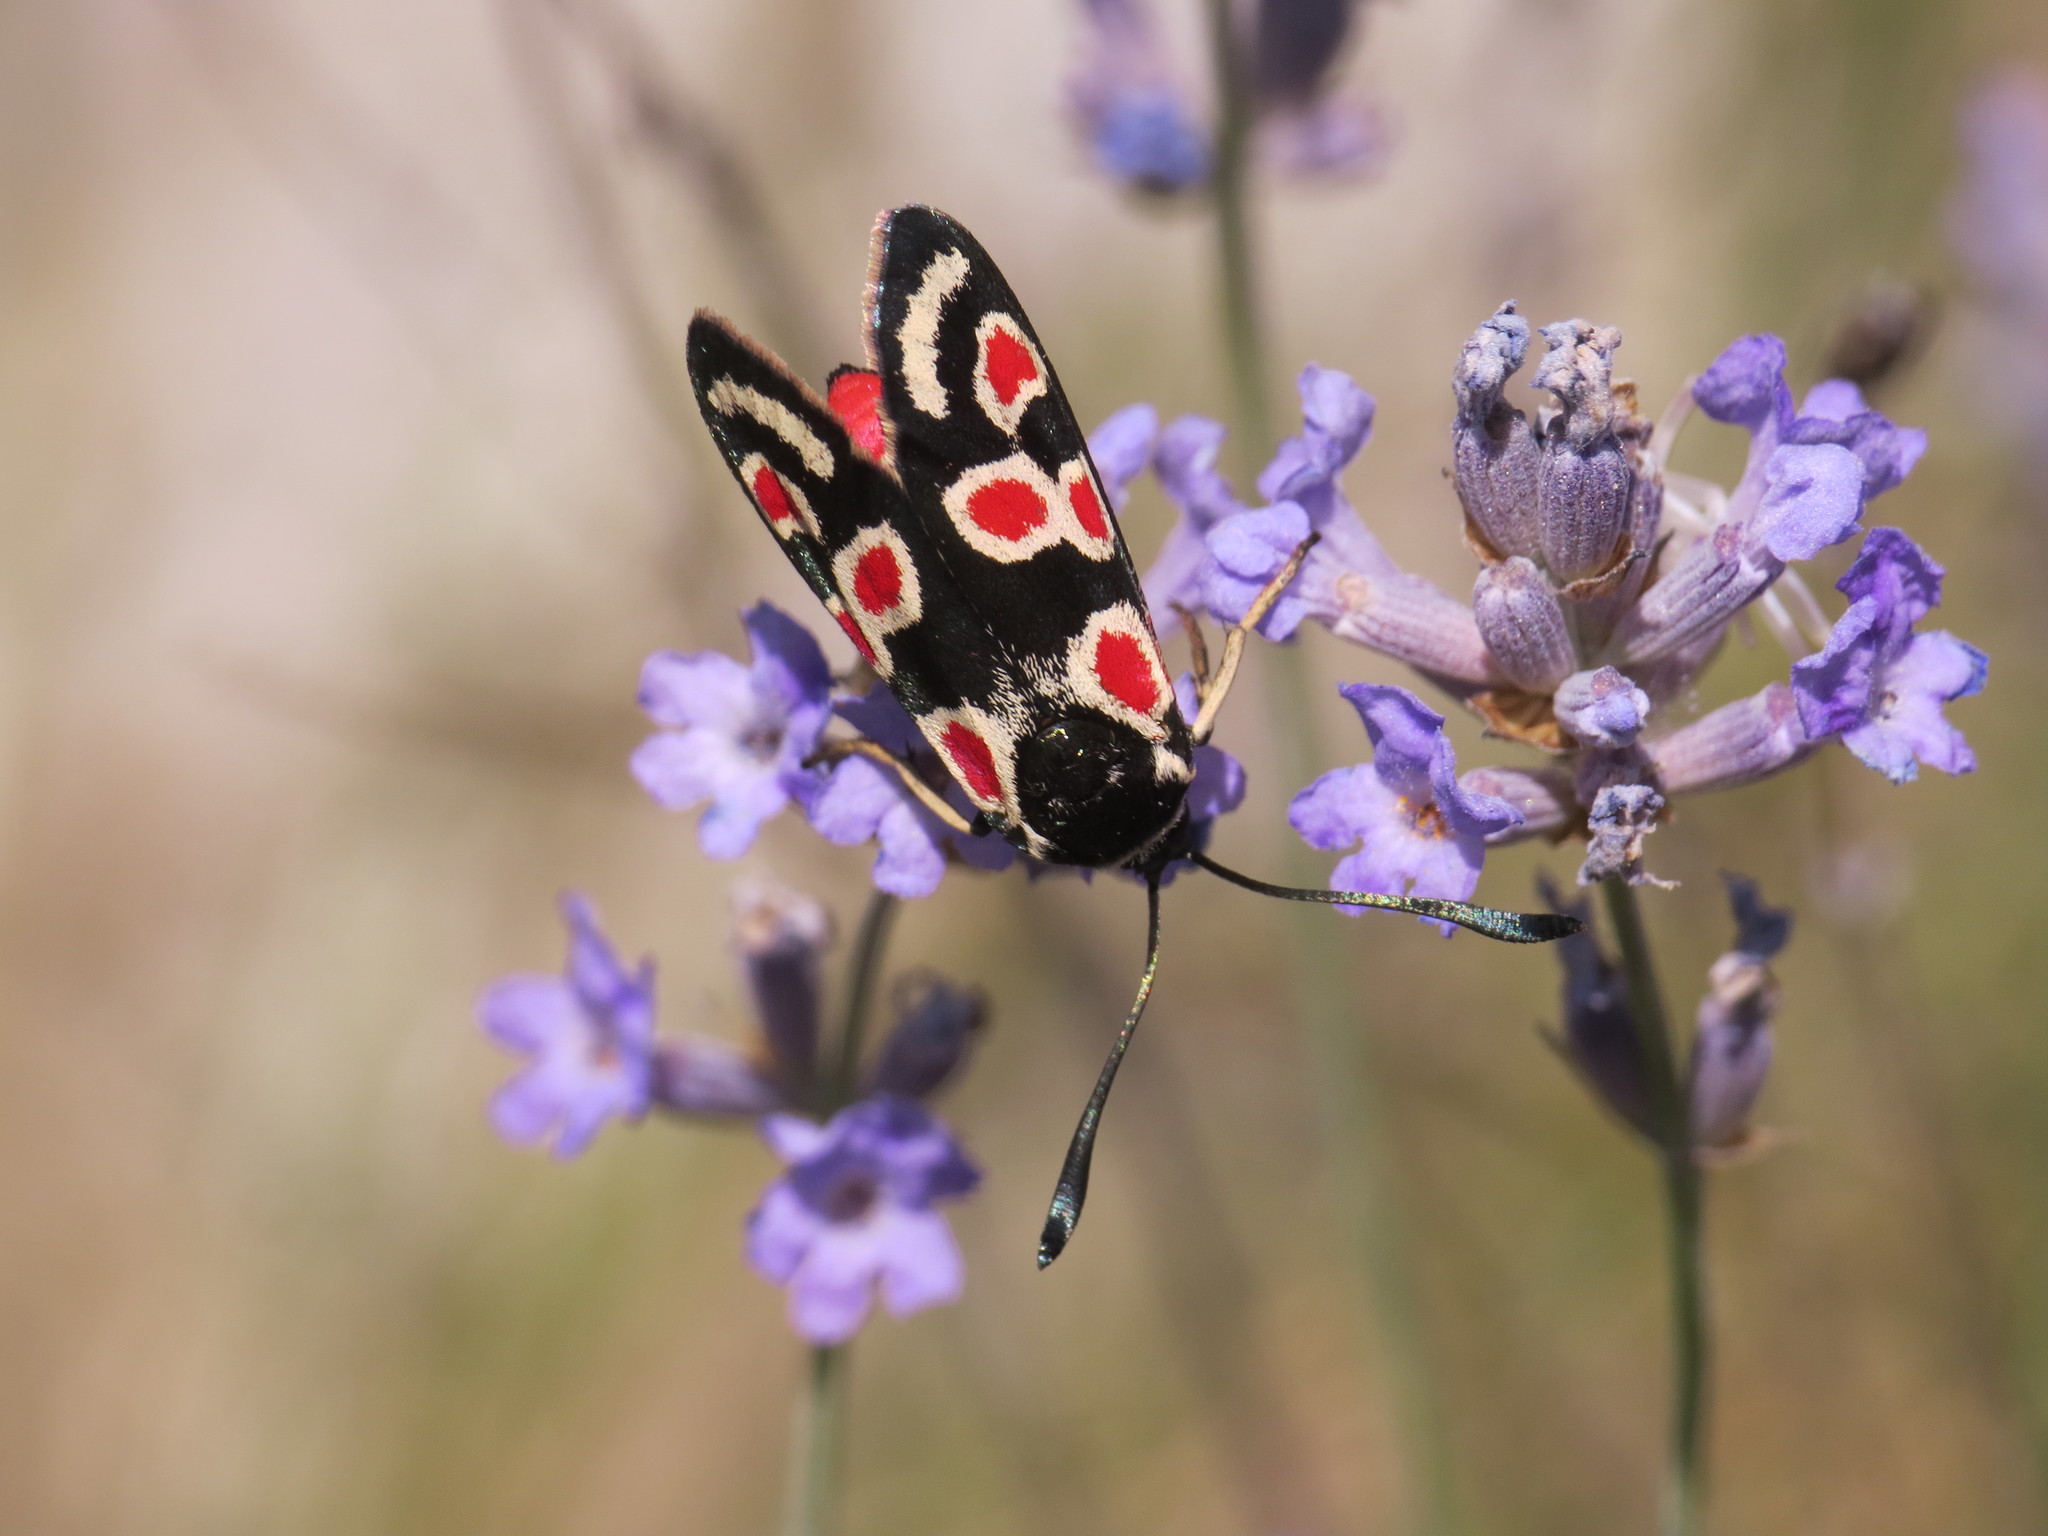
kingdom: Animalia
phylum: Arthropoda
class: Insecta
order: Lepidoptera
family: Zygaenidae
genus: Zygaena
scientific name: Zygaena occitanica
